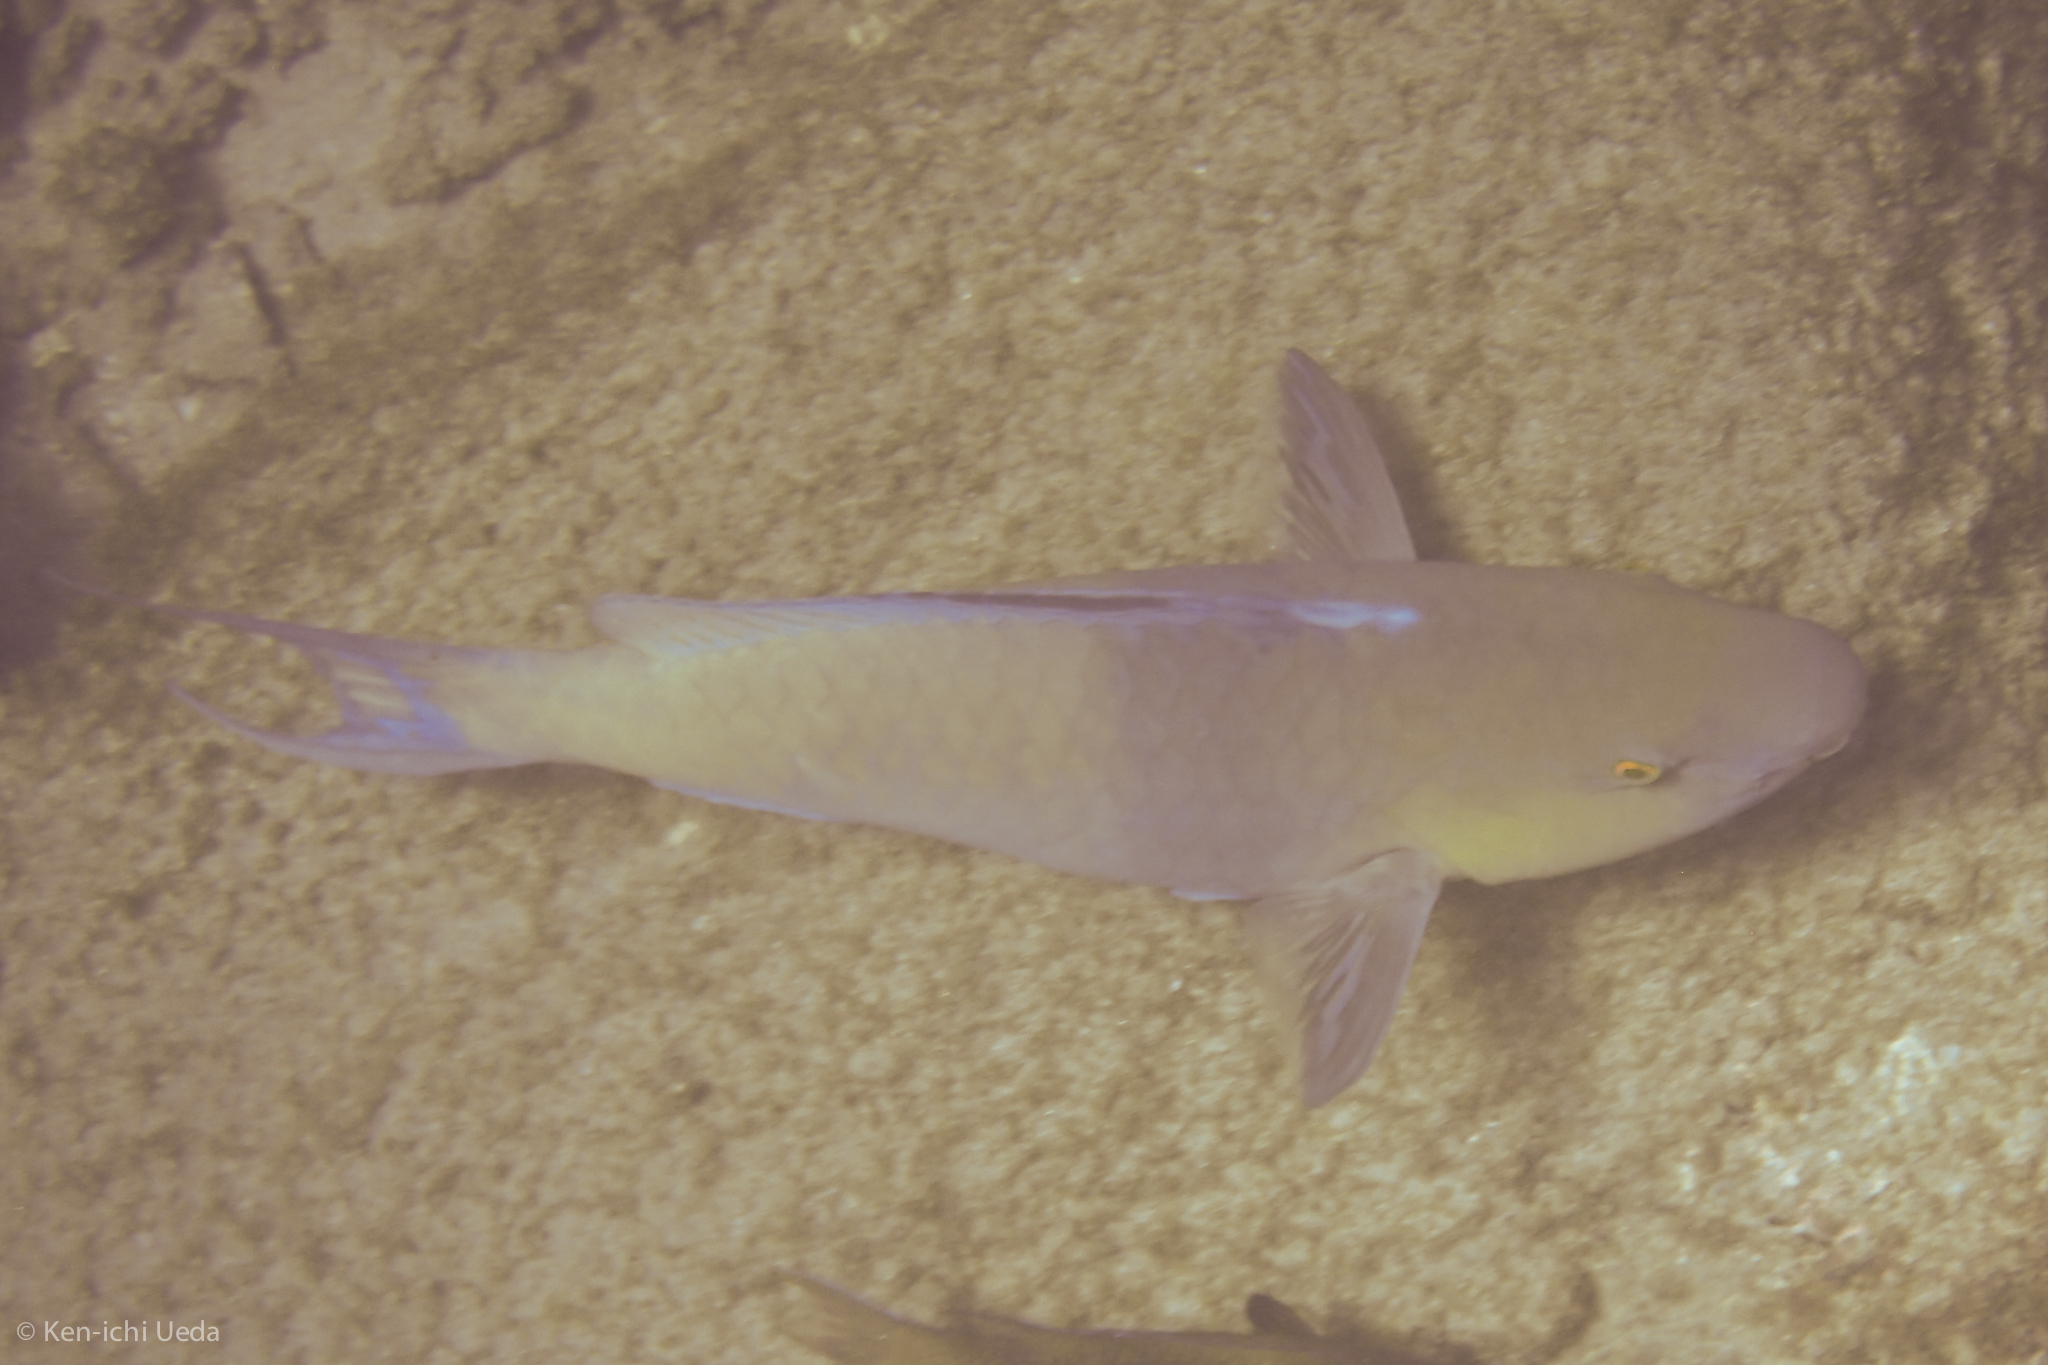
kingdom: Animalia
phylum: Chordata
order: Perciformes
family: Scaridae
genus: Scarus
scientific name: Scarus rubroviolaceus
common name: Ember parrotfish
